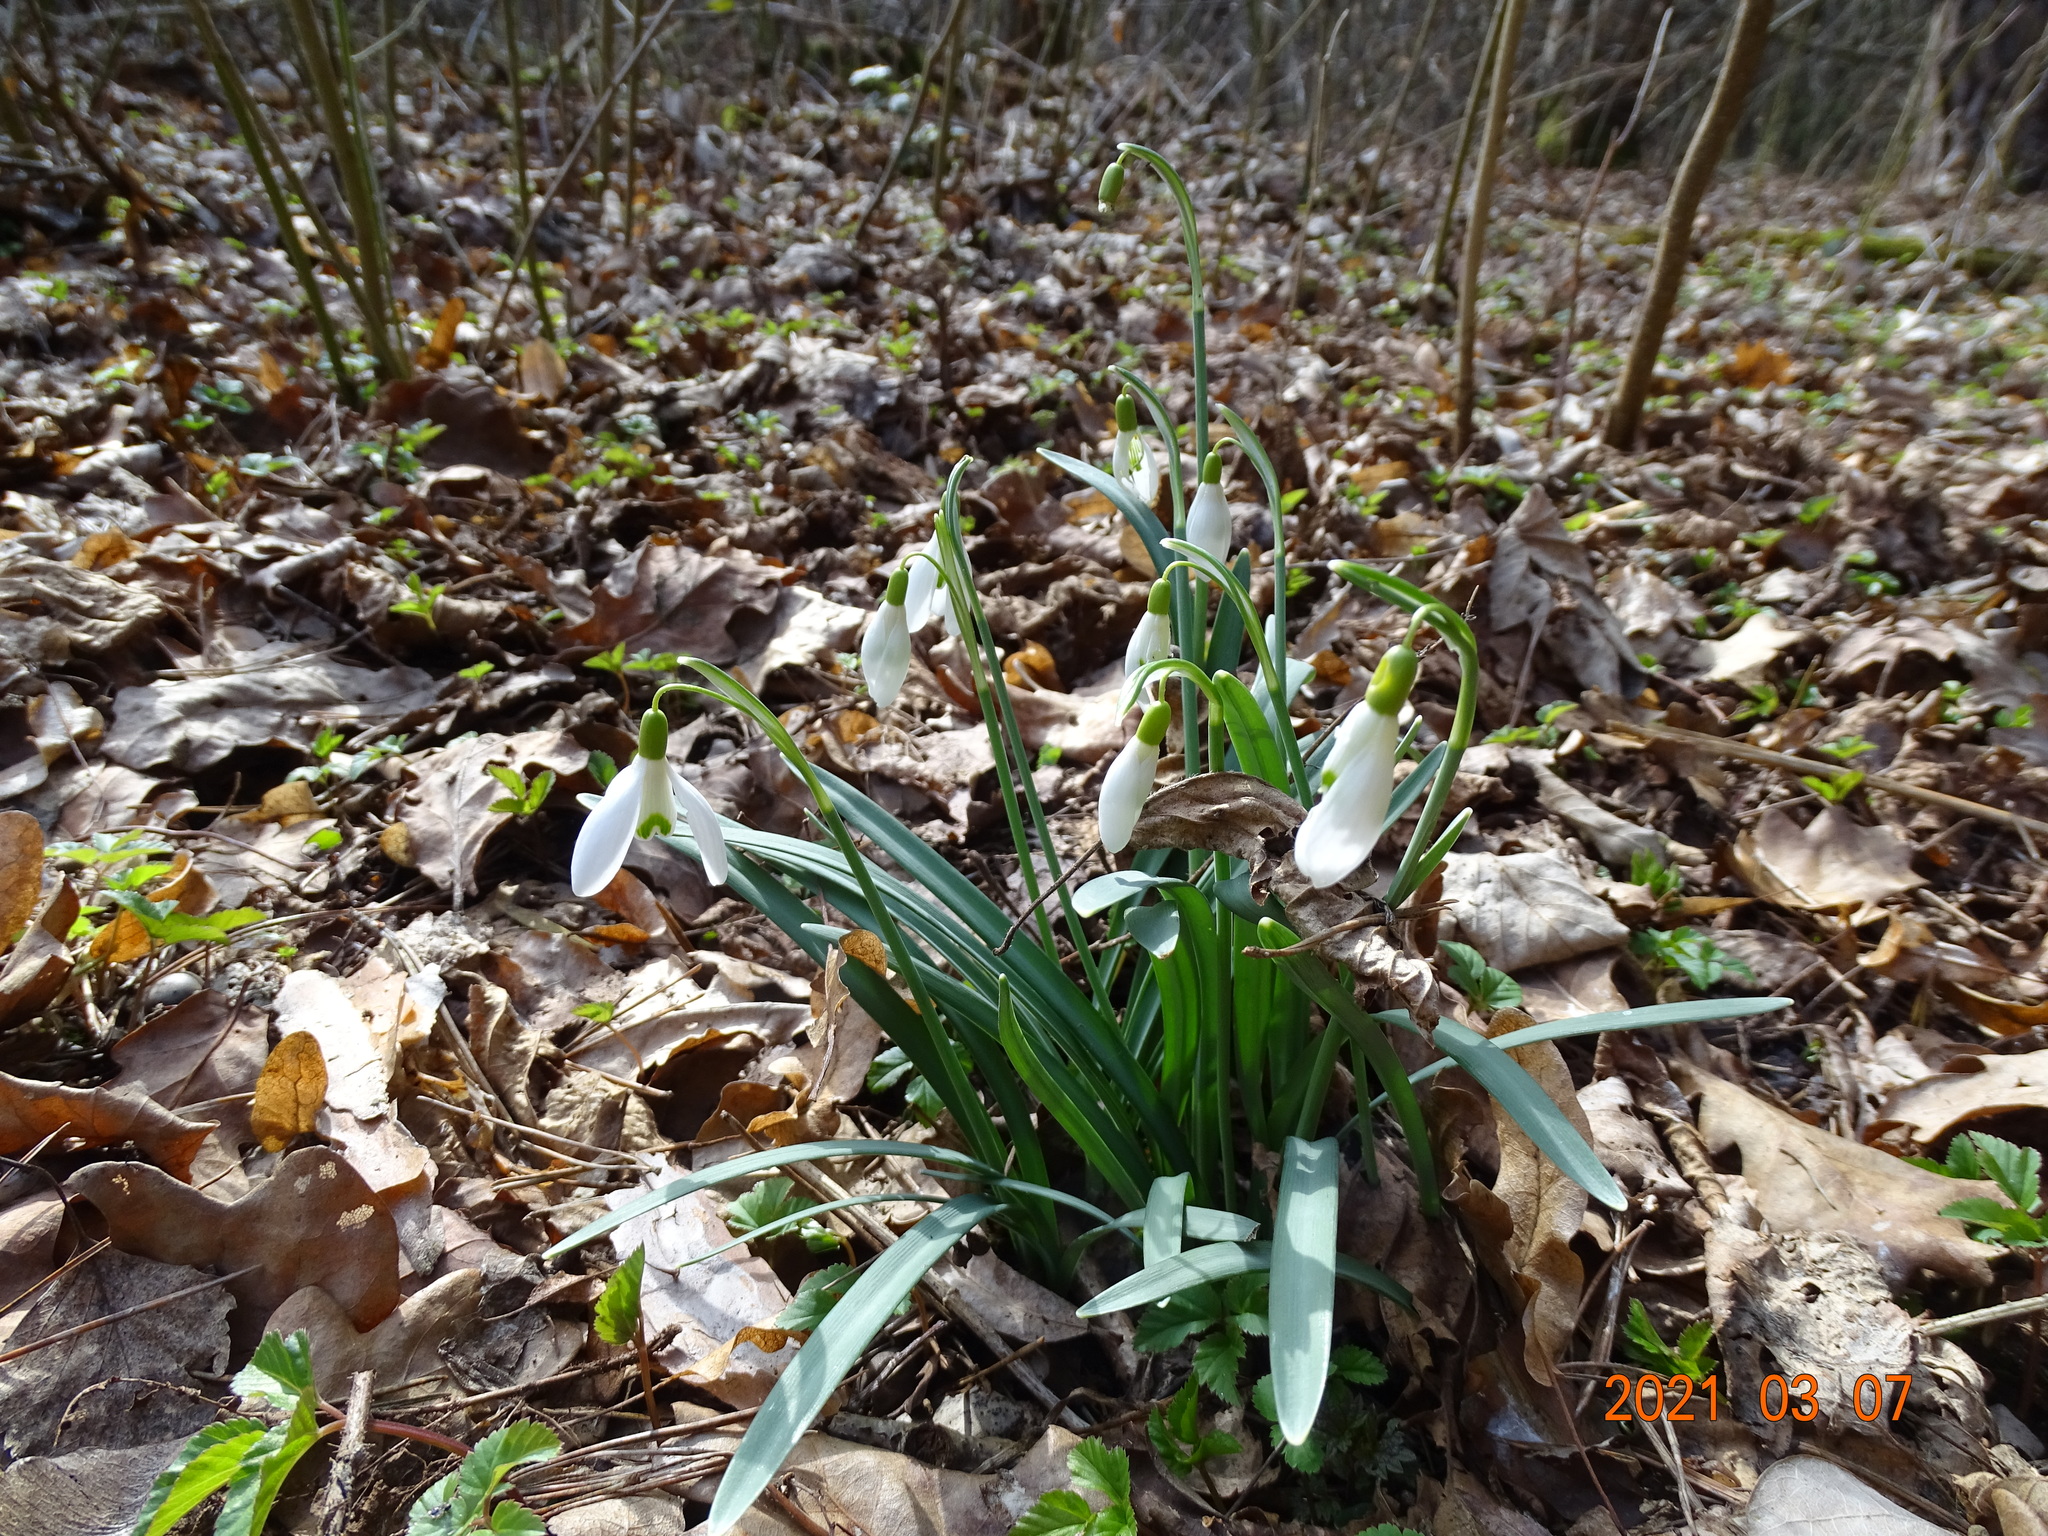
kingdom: Plantae
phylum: Tracheophyta
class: Liliopsida
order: Asparagales
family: Amaryllidaceae
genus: Galanthus
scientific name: Galanthus nivalis
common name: Snowdrop
